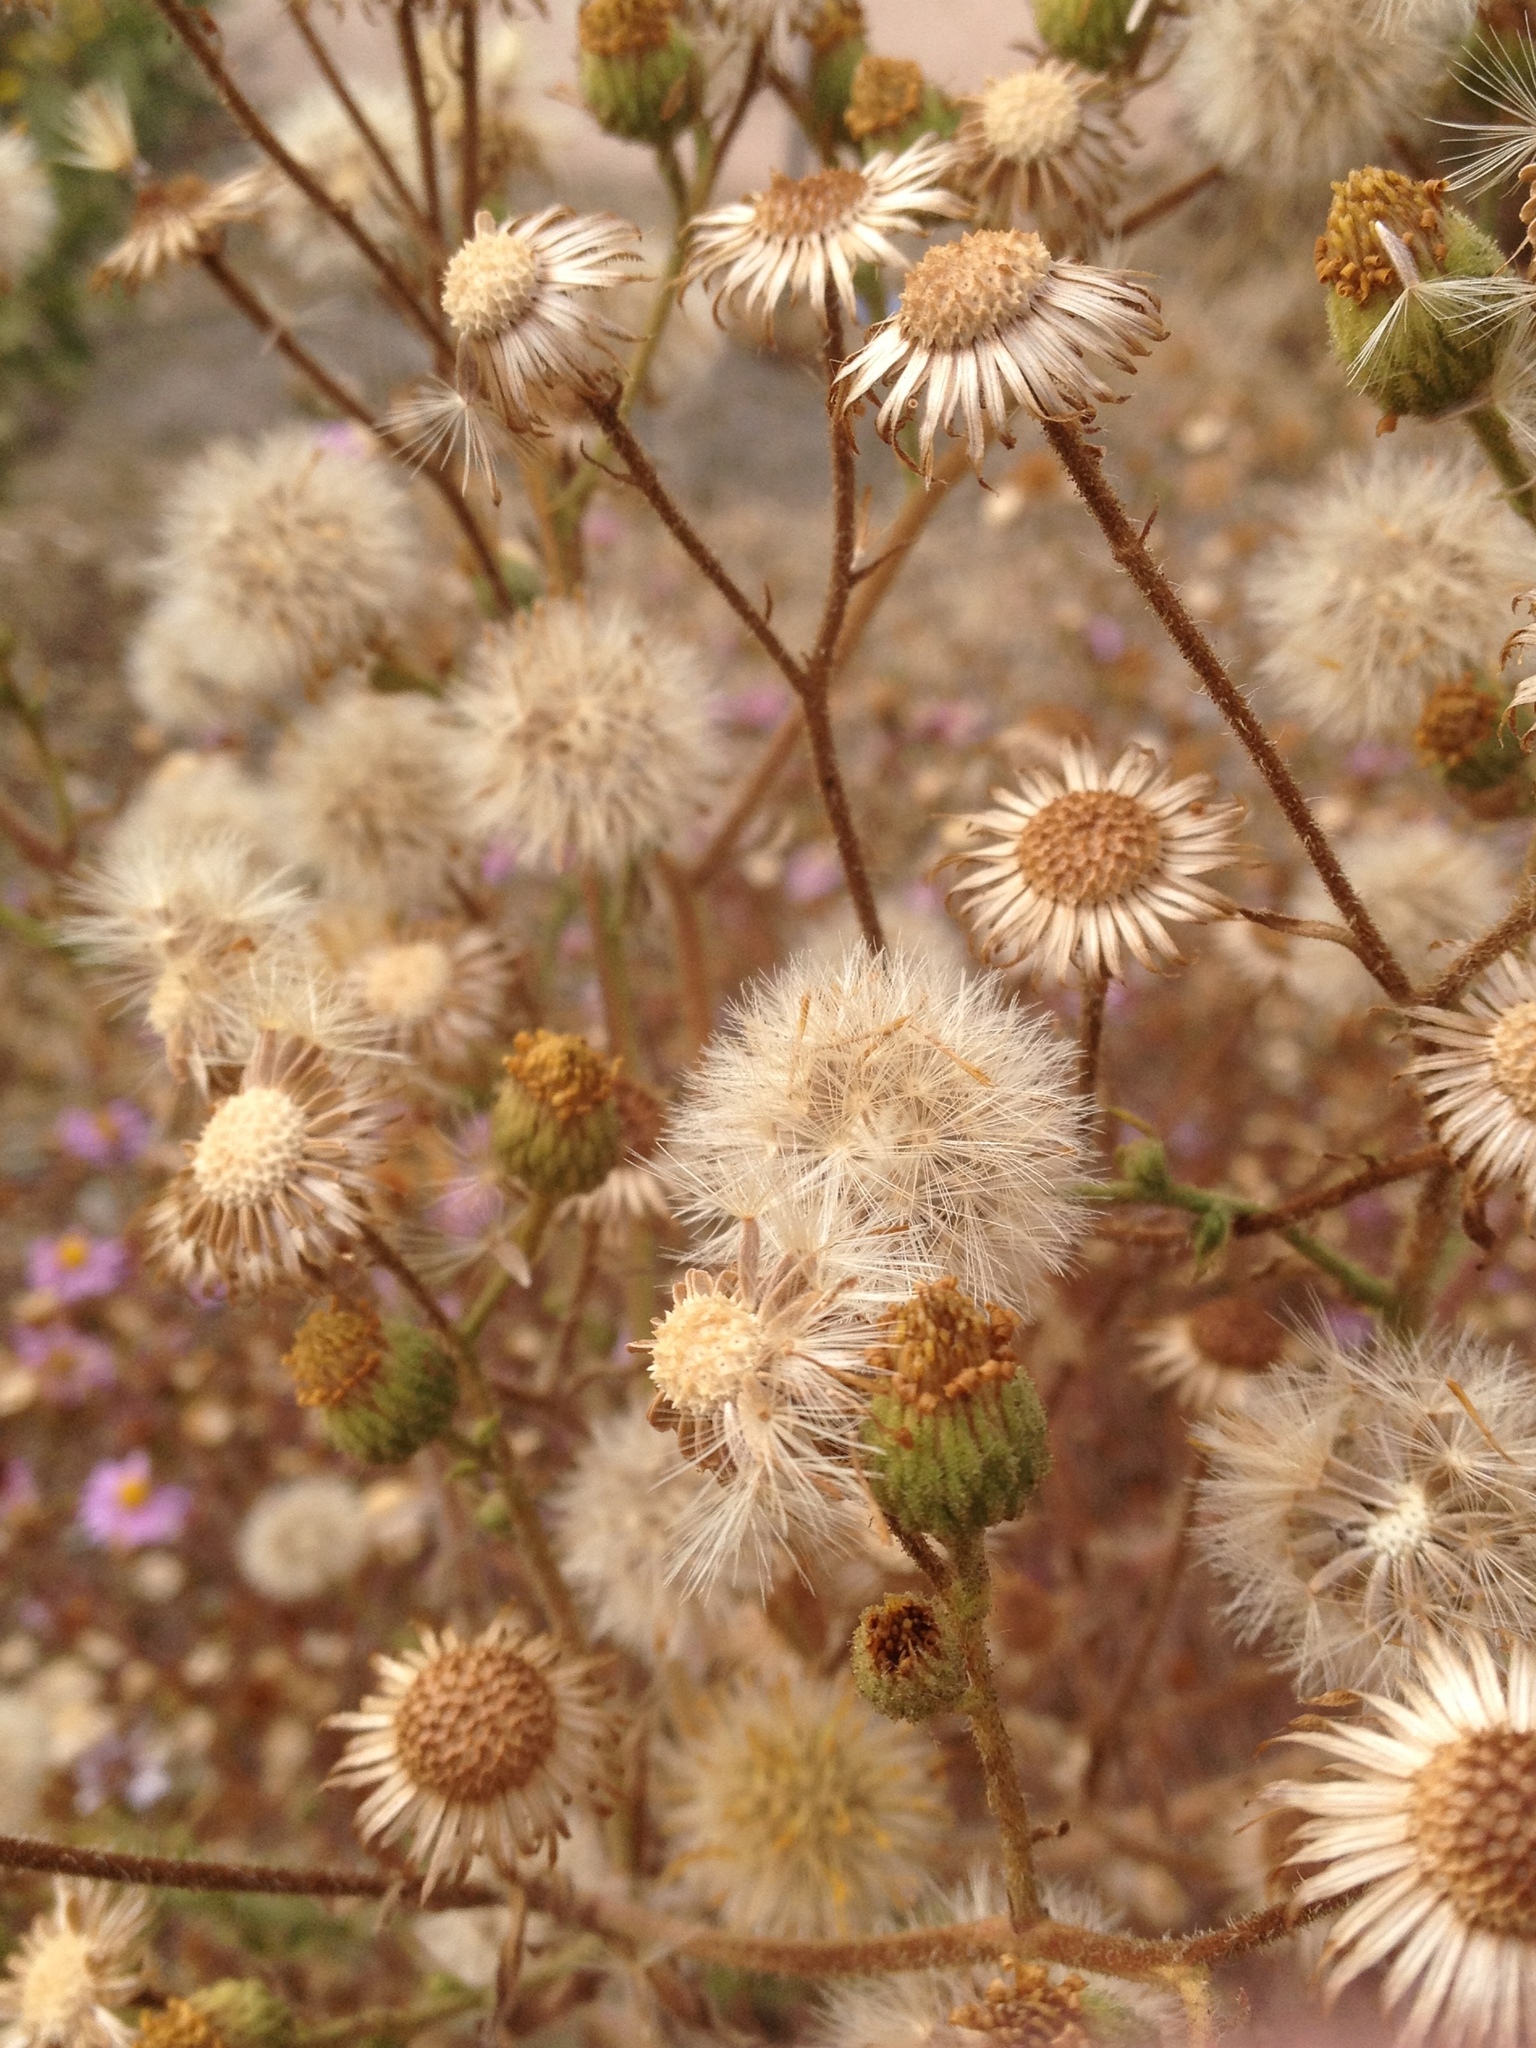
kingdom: Plantae
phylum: Tracheophyta
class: Magnoliopsida
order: Asterales
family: Asteraceae
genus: Heterotheca
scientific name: Heterotheca grandiflora
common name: Telegraphweed
